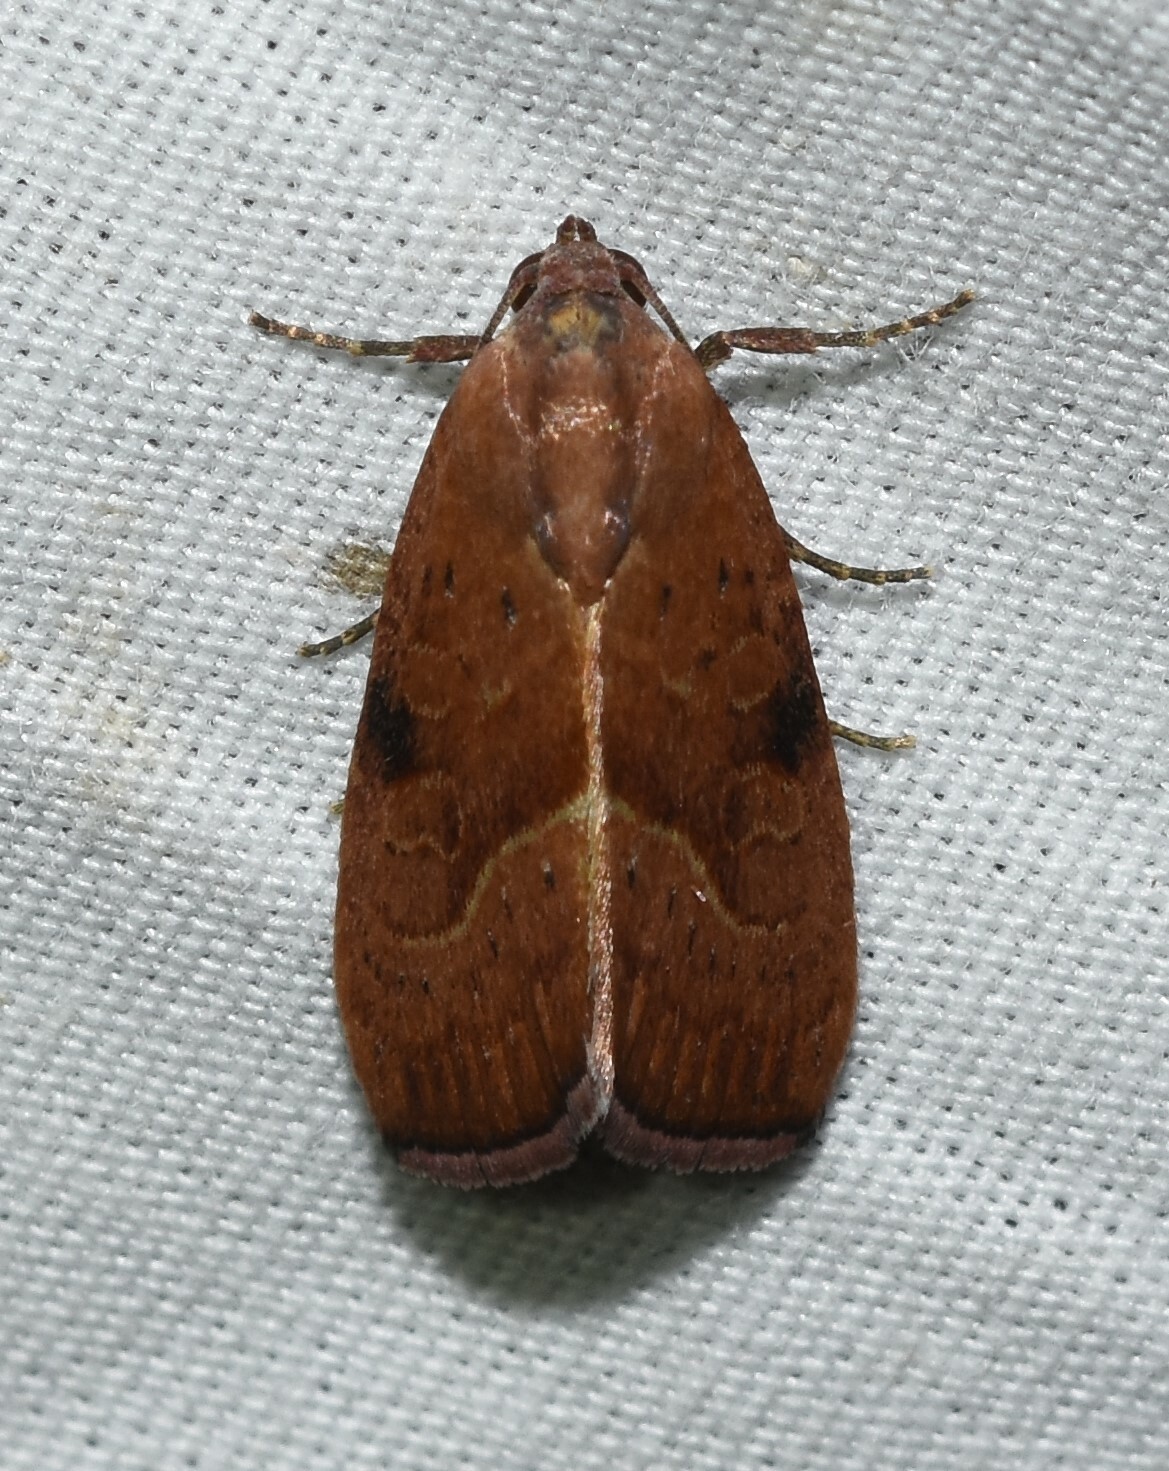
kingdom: Animalia
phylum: Arthropoda
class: Insecta
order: Lepidoptera
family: Noctuidae
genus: Galgula
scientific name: Galgula partita
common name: Wedgeling
